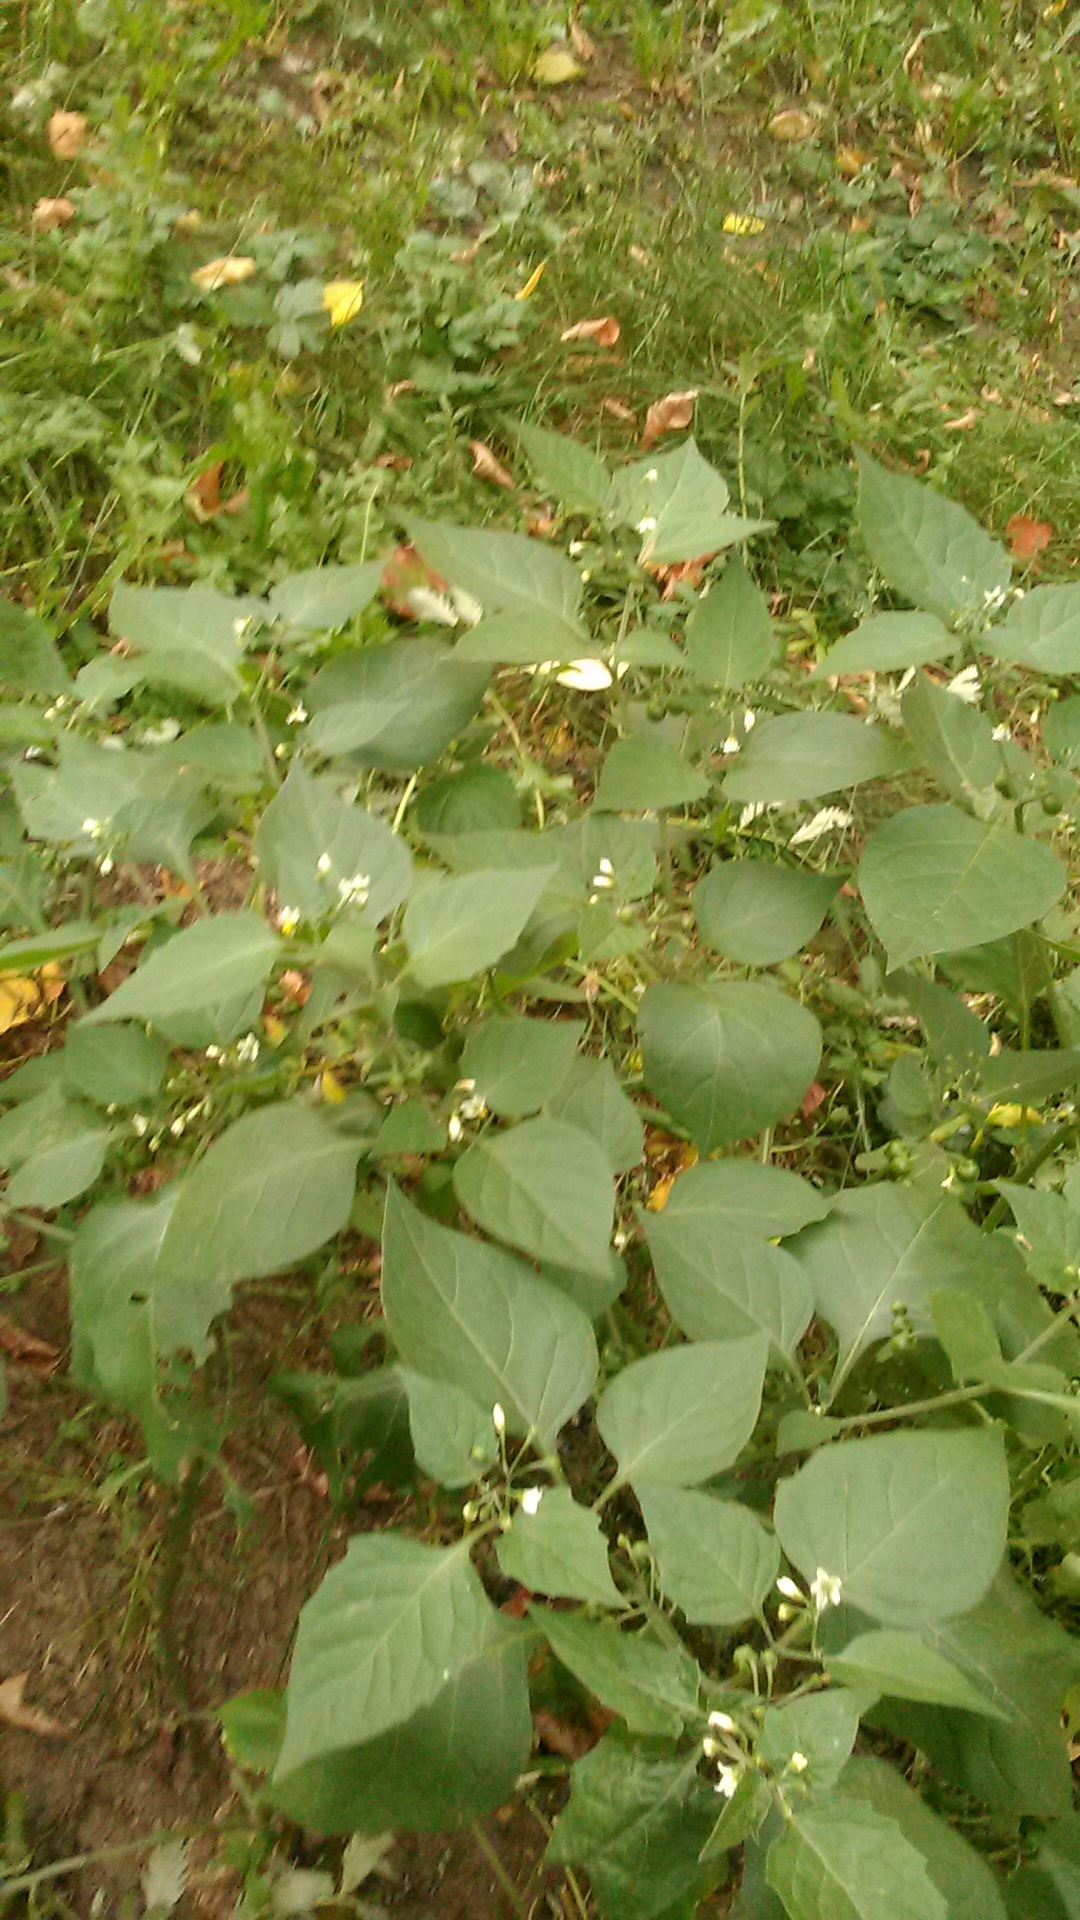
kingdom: Plantae
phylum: Tracheophyta
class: Magnoliopsida
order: Solanales
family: Solanaceae
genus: Solanum
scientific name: Solanum nigrum
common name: Black nightshade
